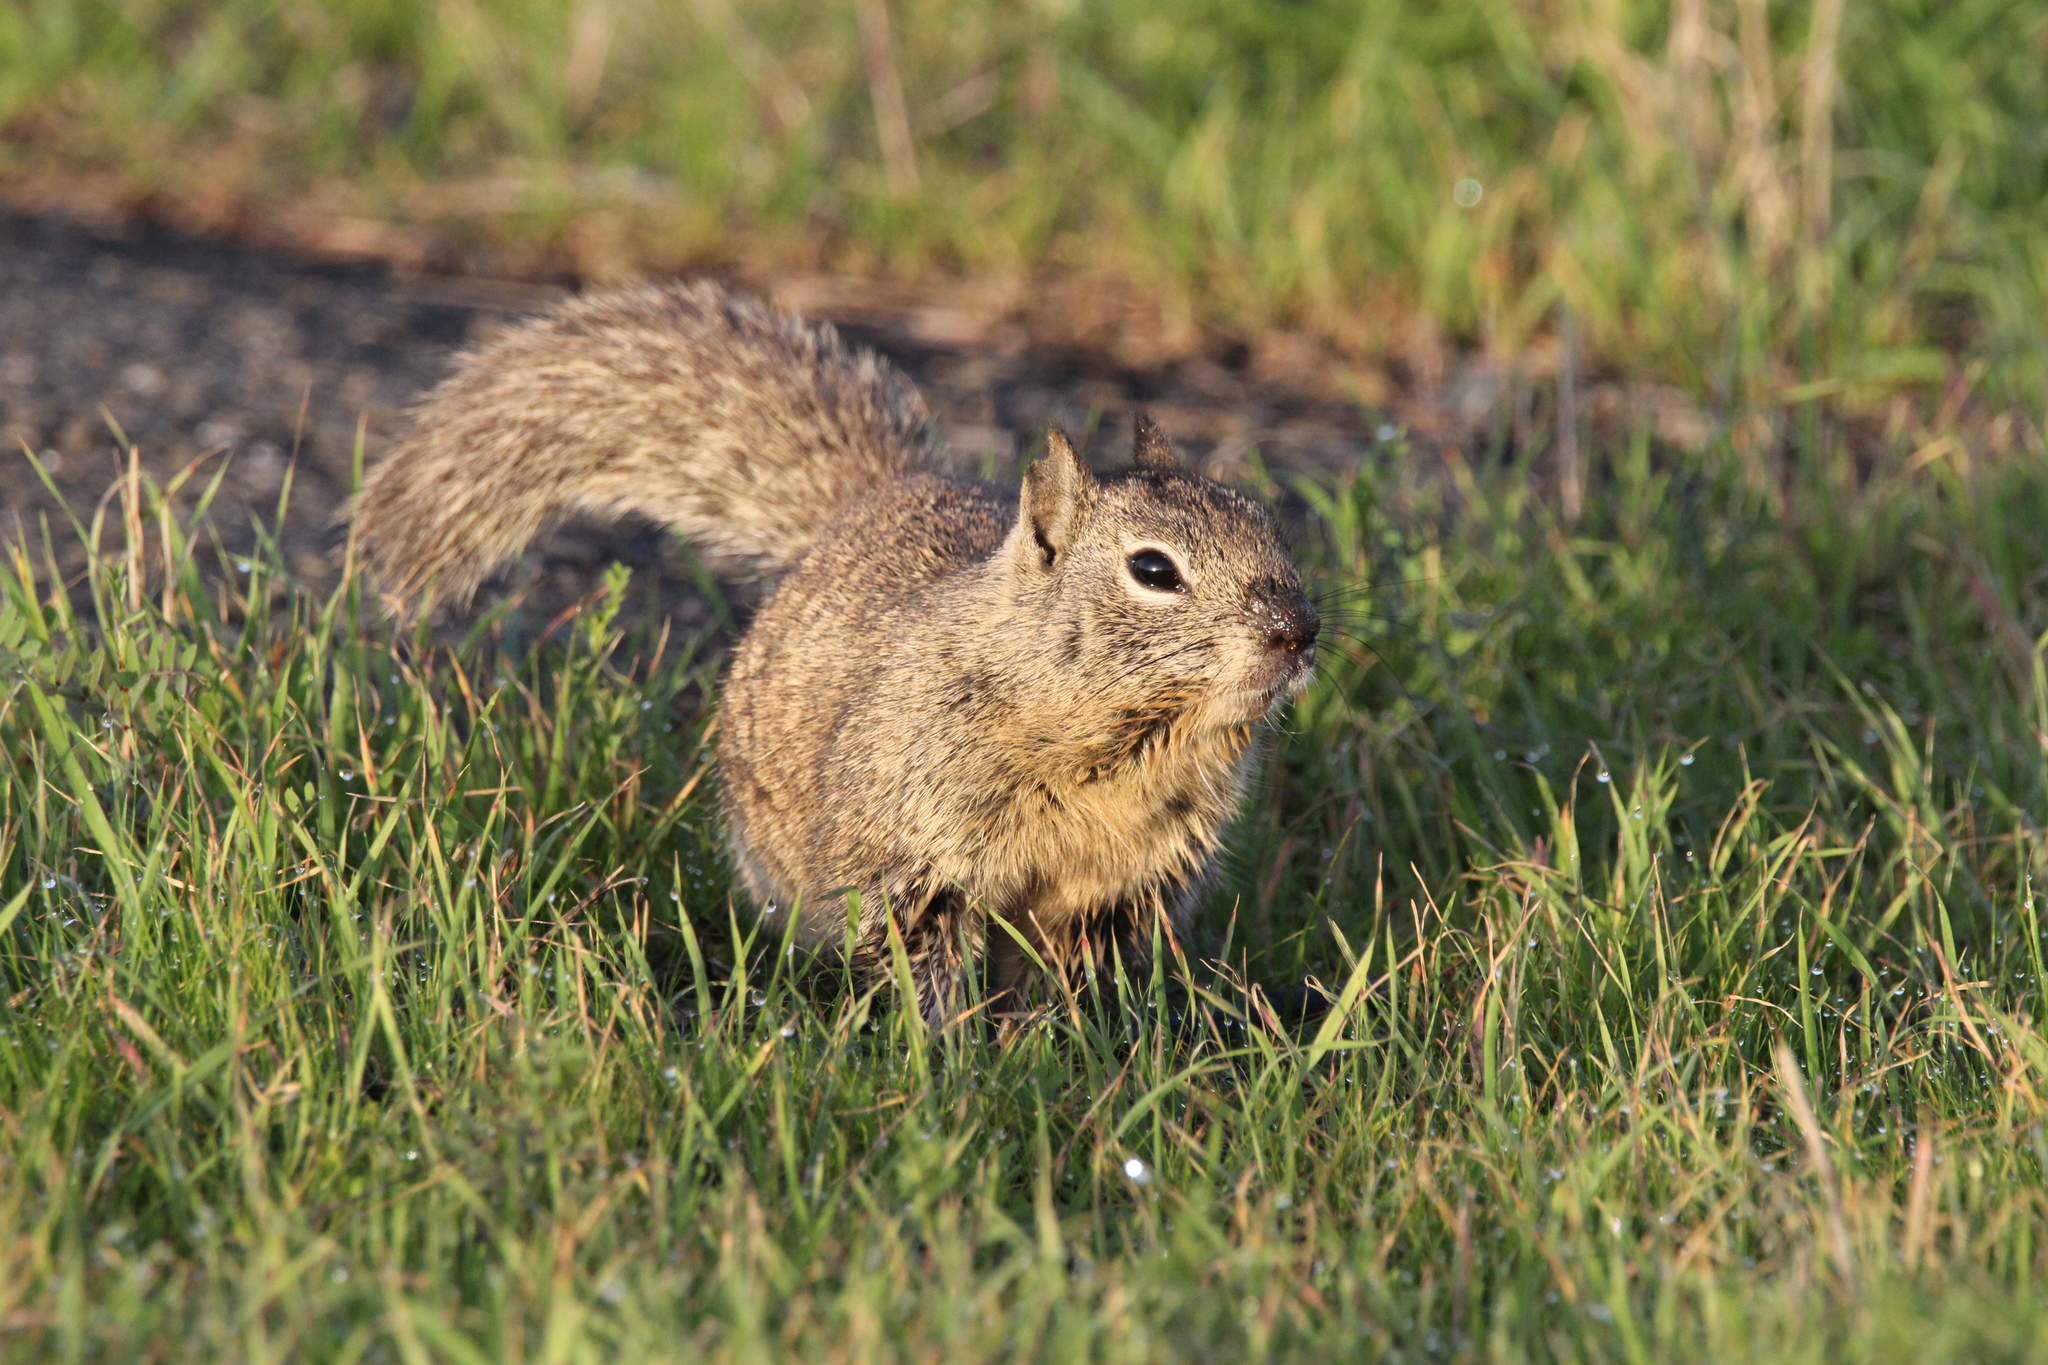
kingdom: Animalia
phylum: Chordata
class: Mammalia
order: Rodentia
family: Sciuridae
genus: Otospermophilus
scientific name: Otospermophilus beecheyi
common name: California ground squirrel
